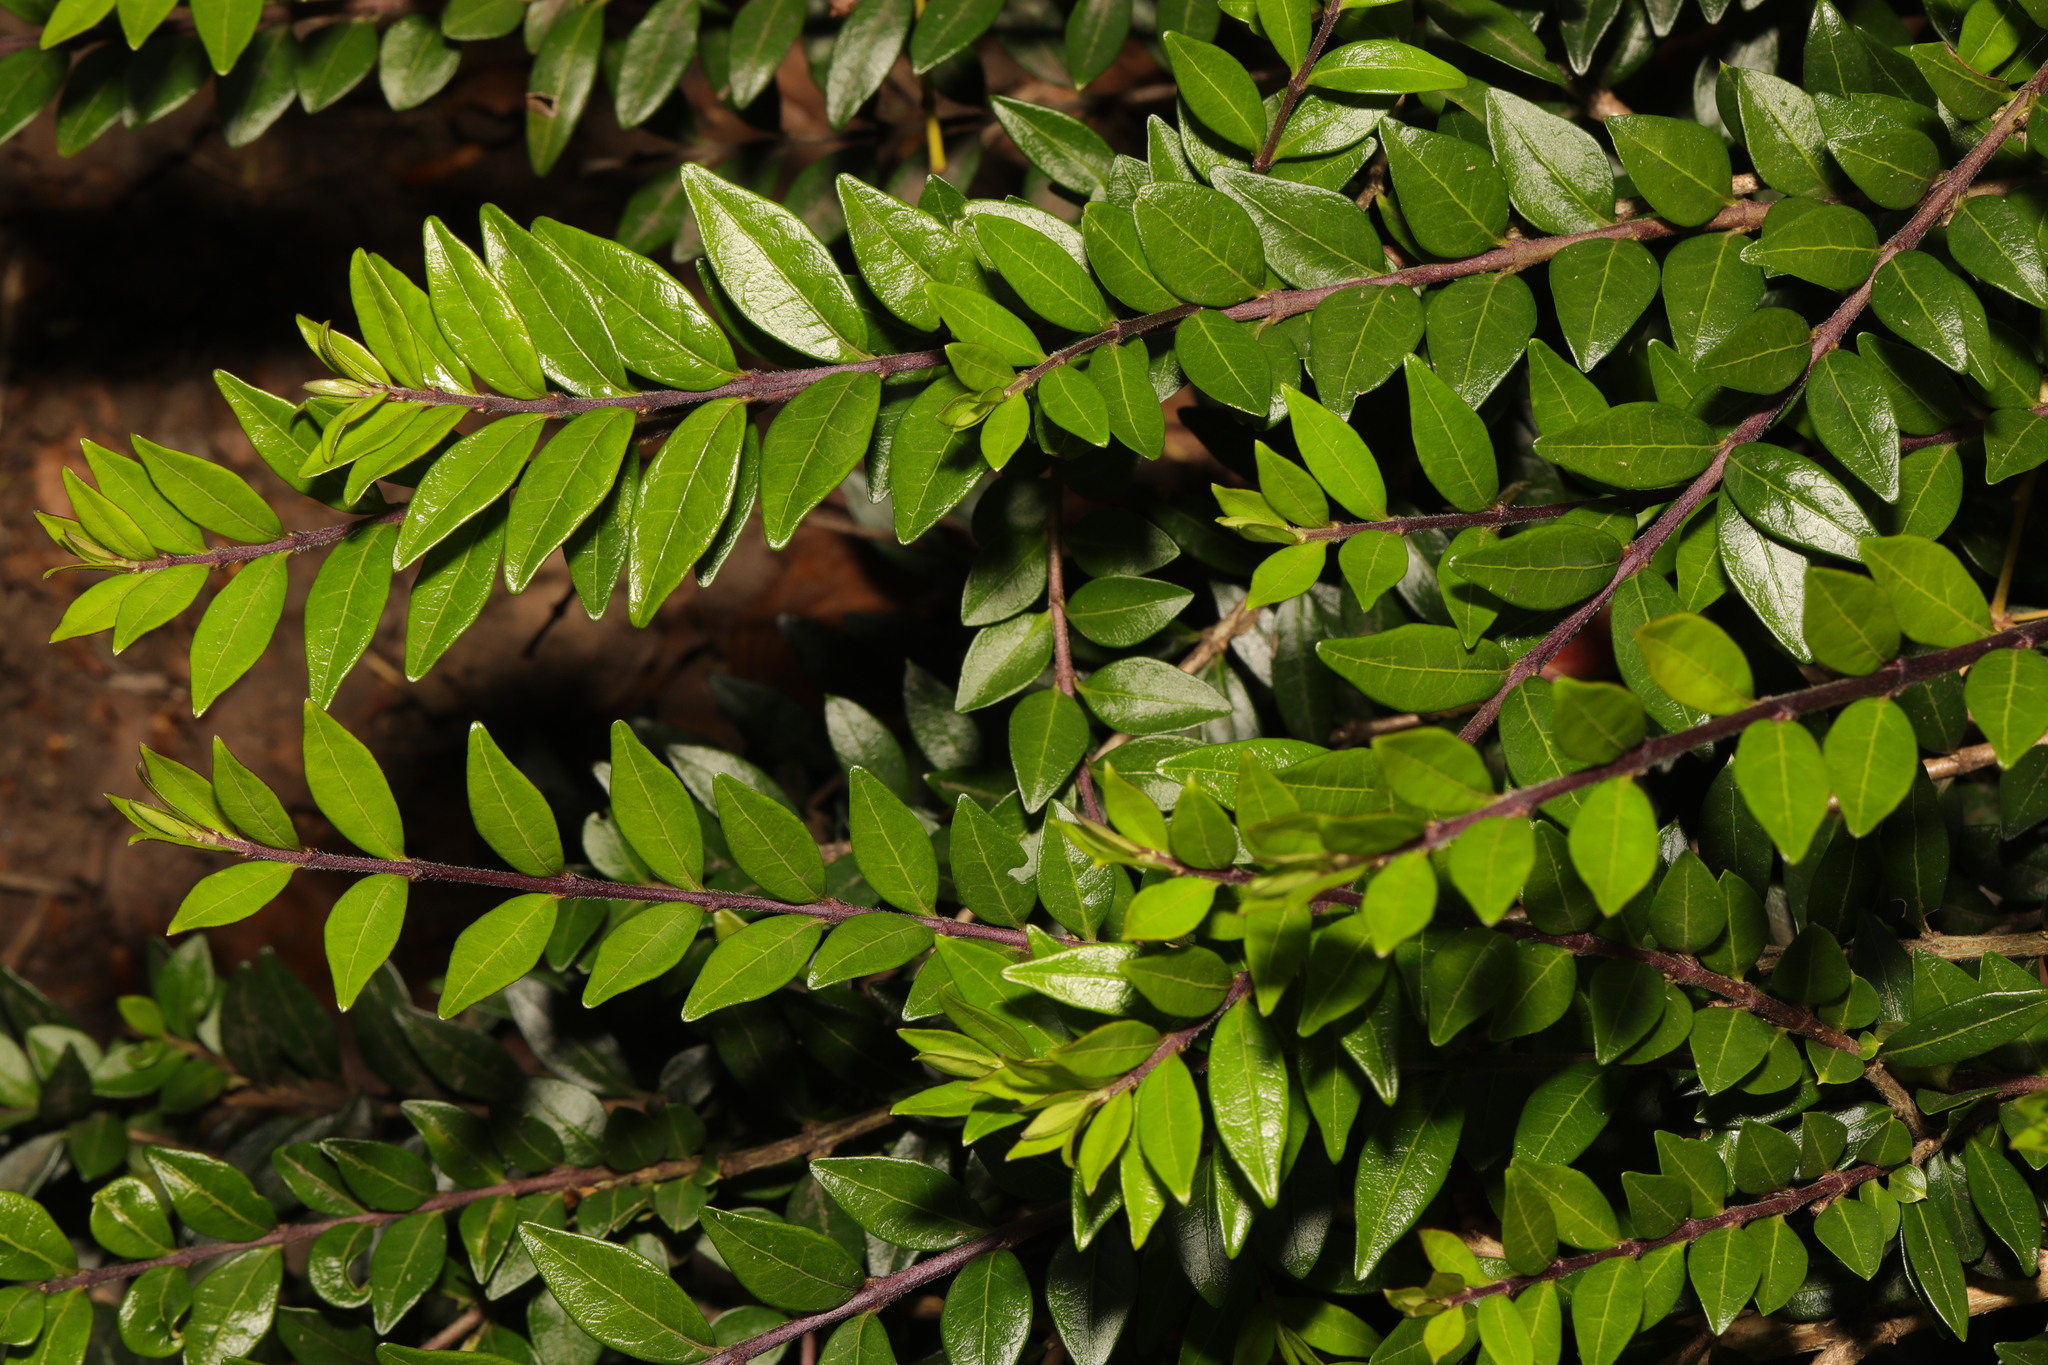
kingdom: Plantae
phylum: Tracheophyta
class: Magnoliopsida
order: Dipsacales
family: Caprifoliaceae
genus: Lonicera
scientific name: Lonicera pileata
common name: Box-leaved honeysuckle
